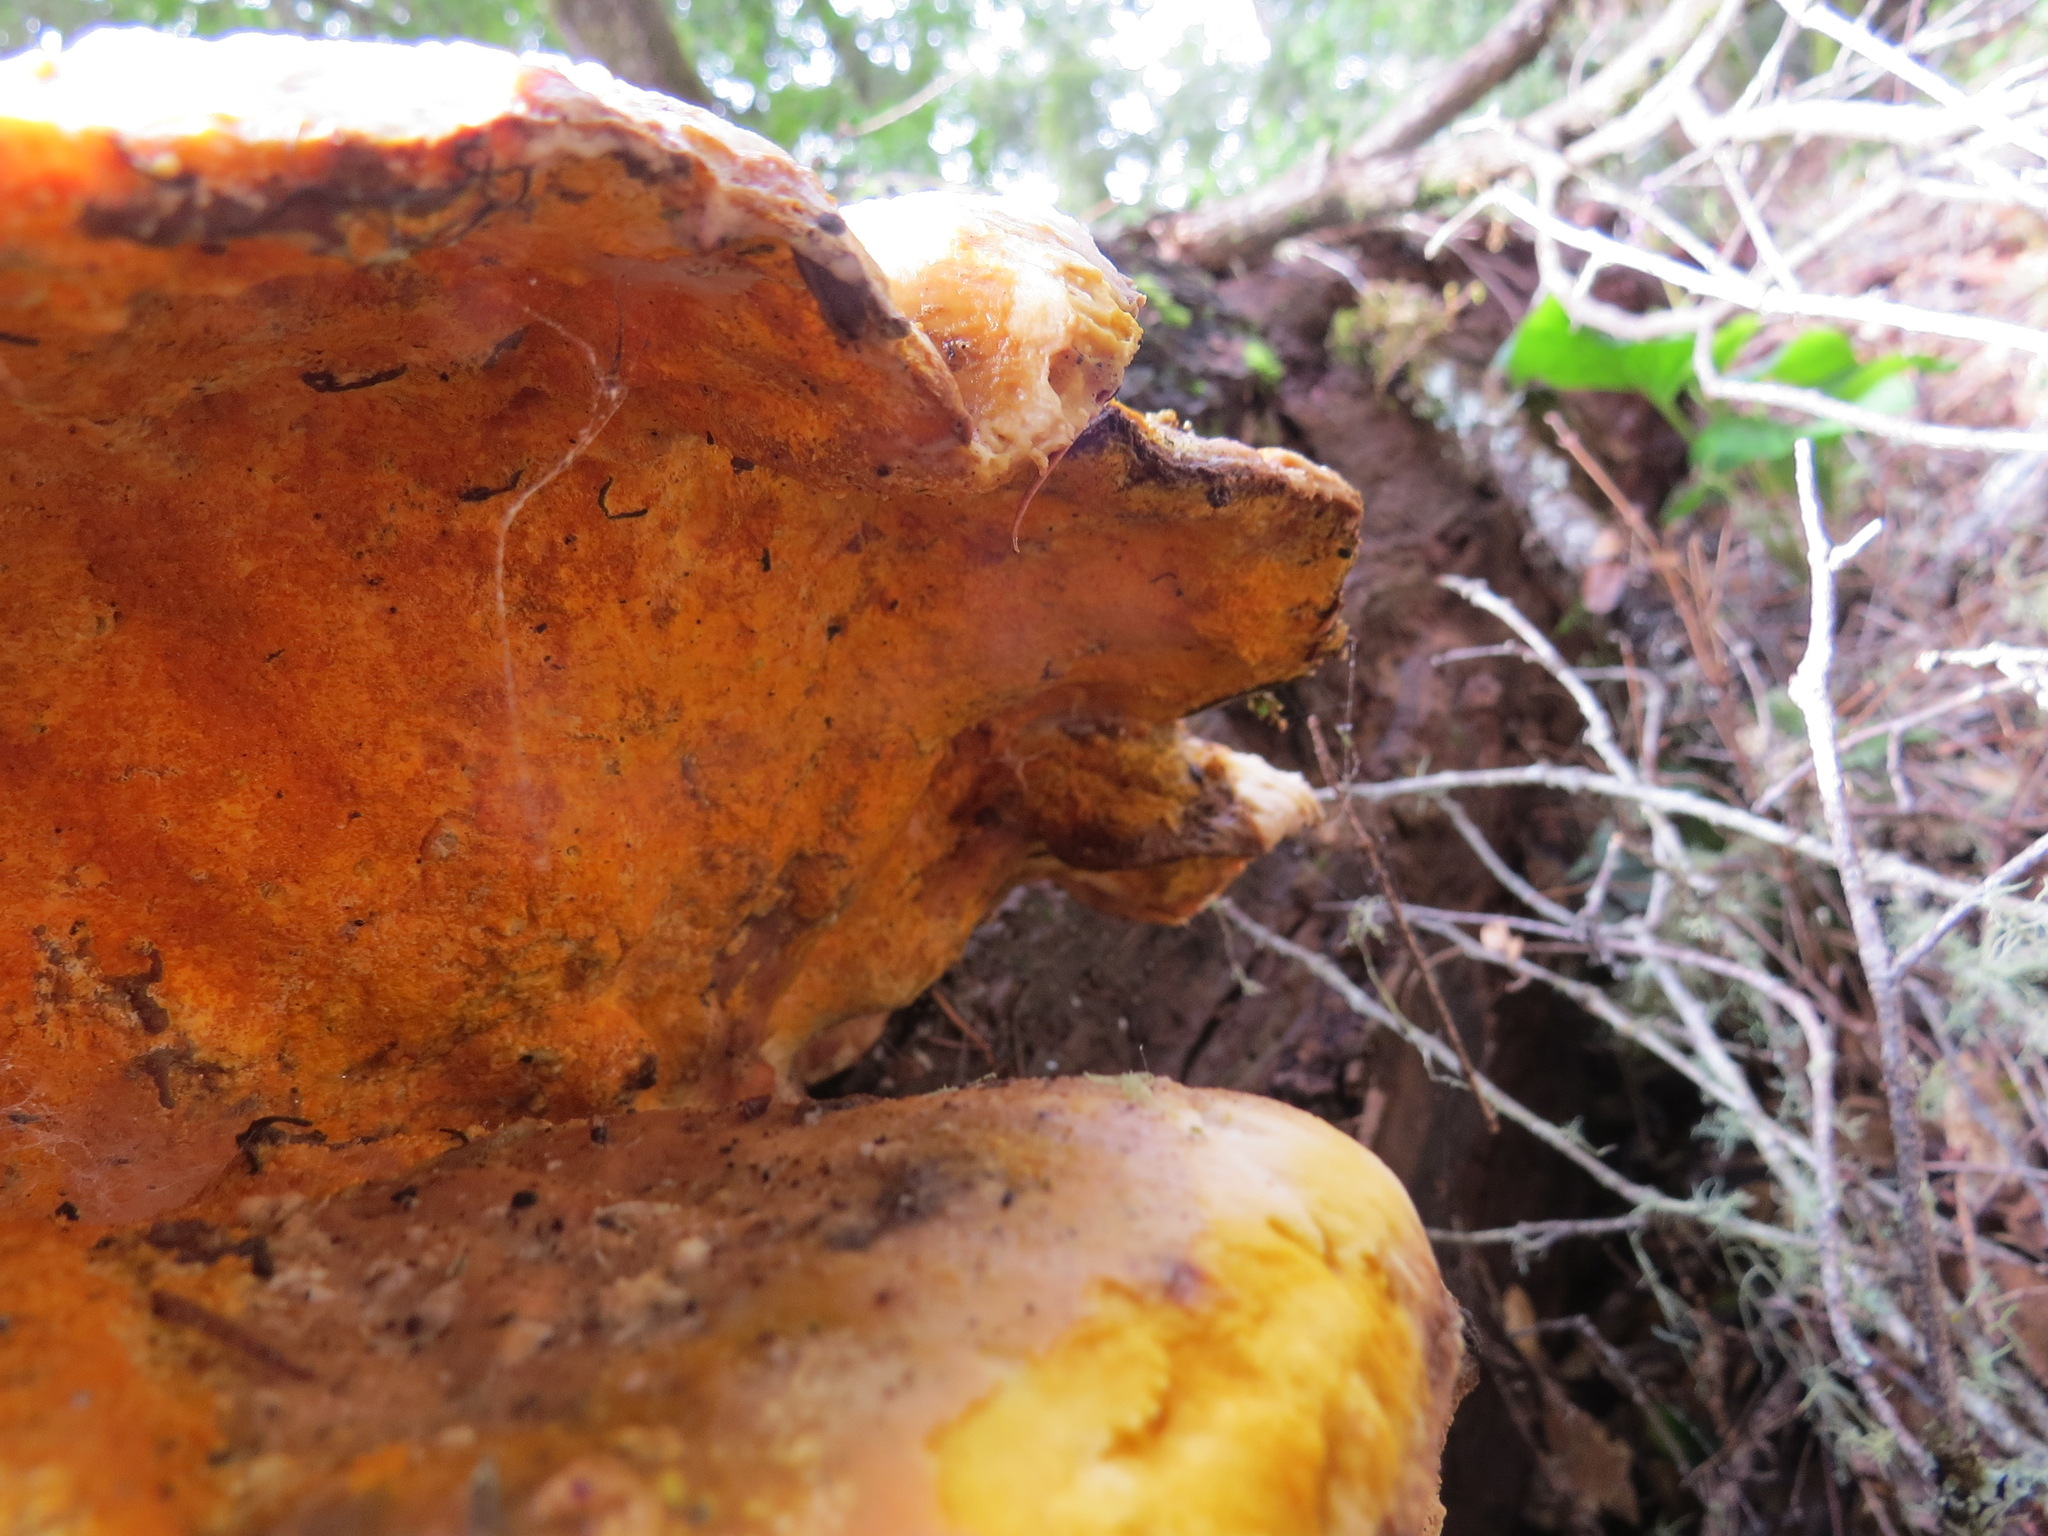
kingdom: Fungi
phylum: Ascomycota
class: Sordariomycetes
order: Hypocreales
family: Hypocreaceae
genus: Hypomyces
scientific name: Hypomyces aurantius
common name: Orange polypore mould
